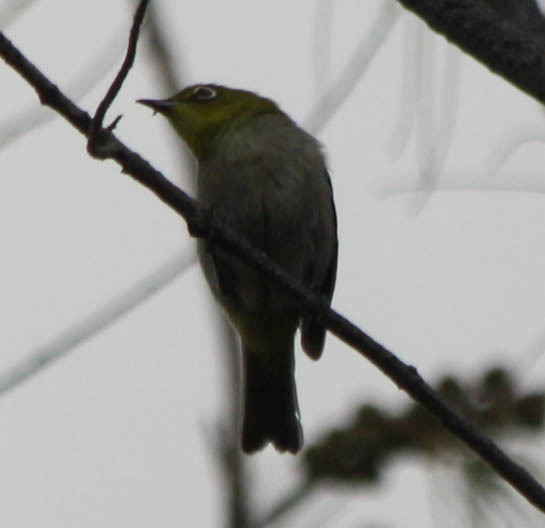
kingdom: Animalia
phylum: Chordata
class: Aves
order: Passeriformes
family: Zosteropidae
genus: Zosterops
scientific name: Zosterops japonicus
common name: Japanese white-eye
